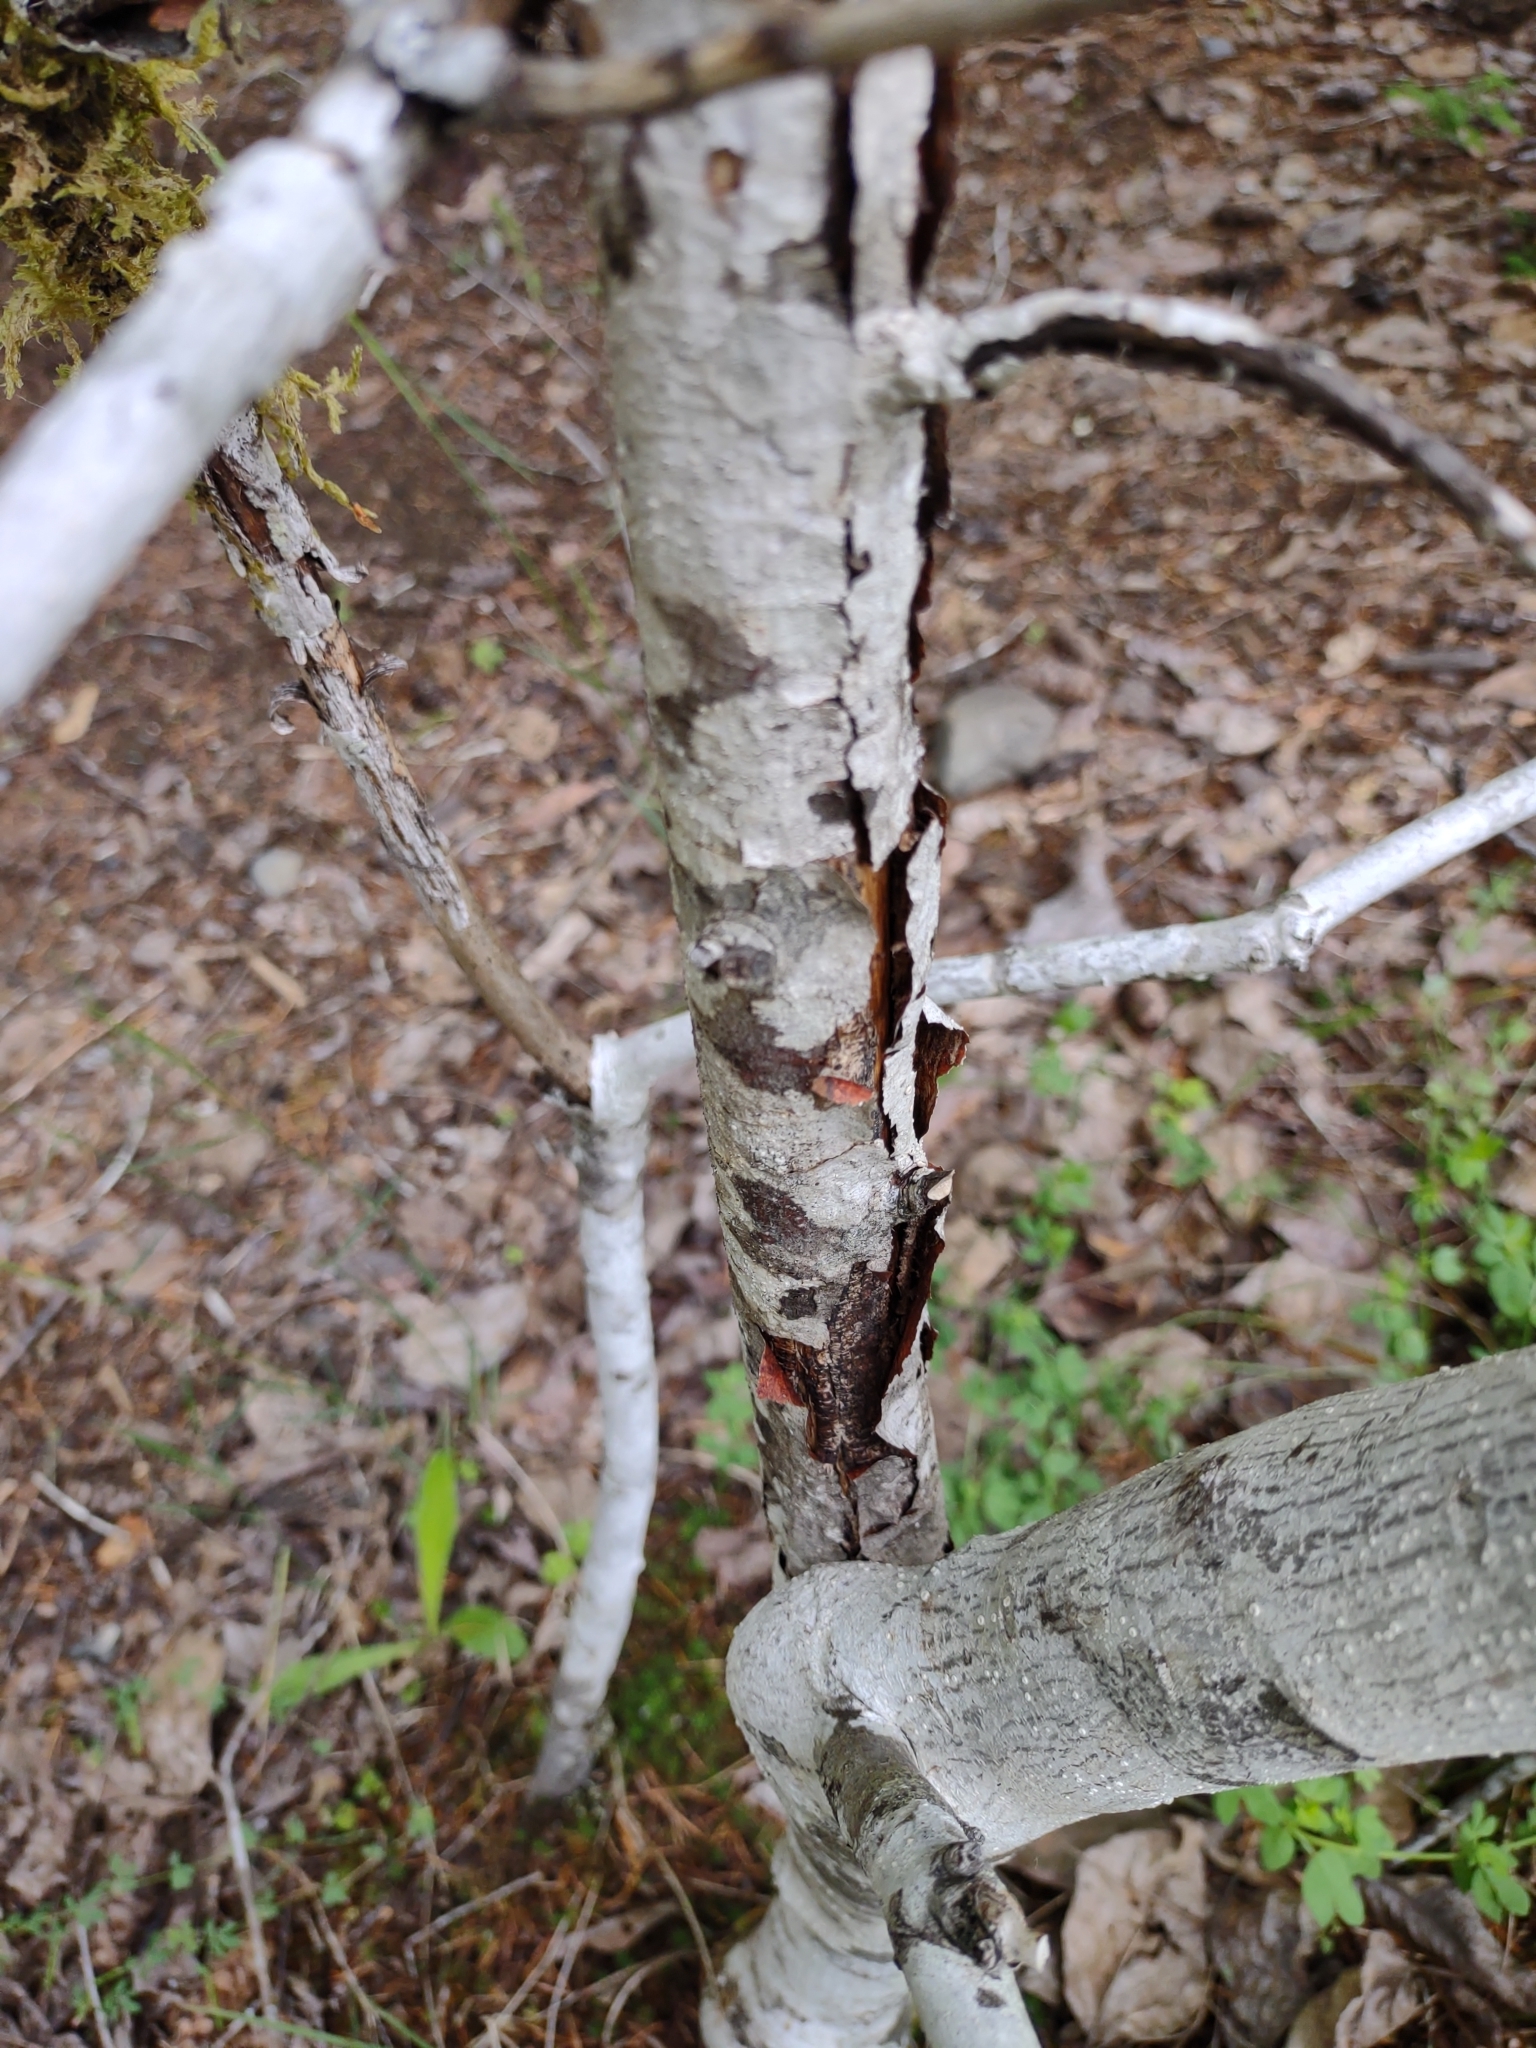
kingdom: Plantae
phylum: Tracheophyta
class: Magnoliopsida
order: Rosales
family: Rhamnaceae
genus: Frangula
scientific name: Frangula purshiana
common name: Cascara buckthorn
